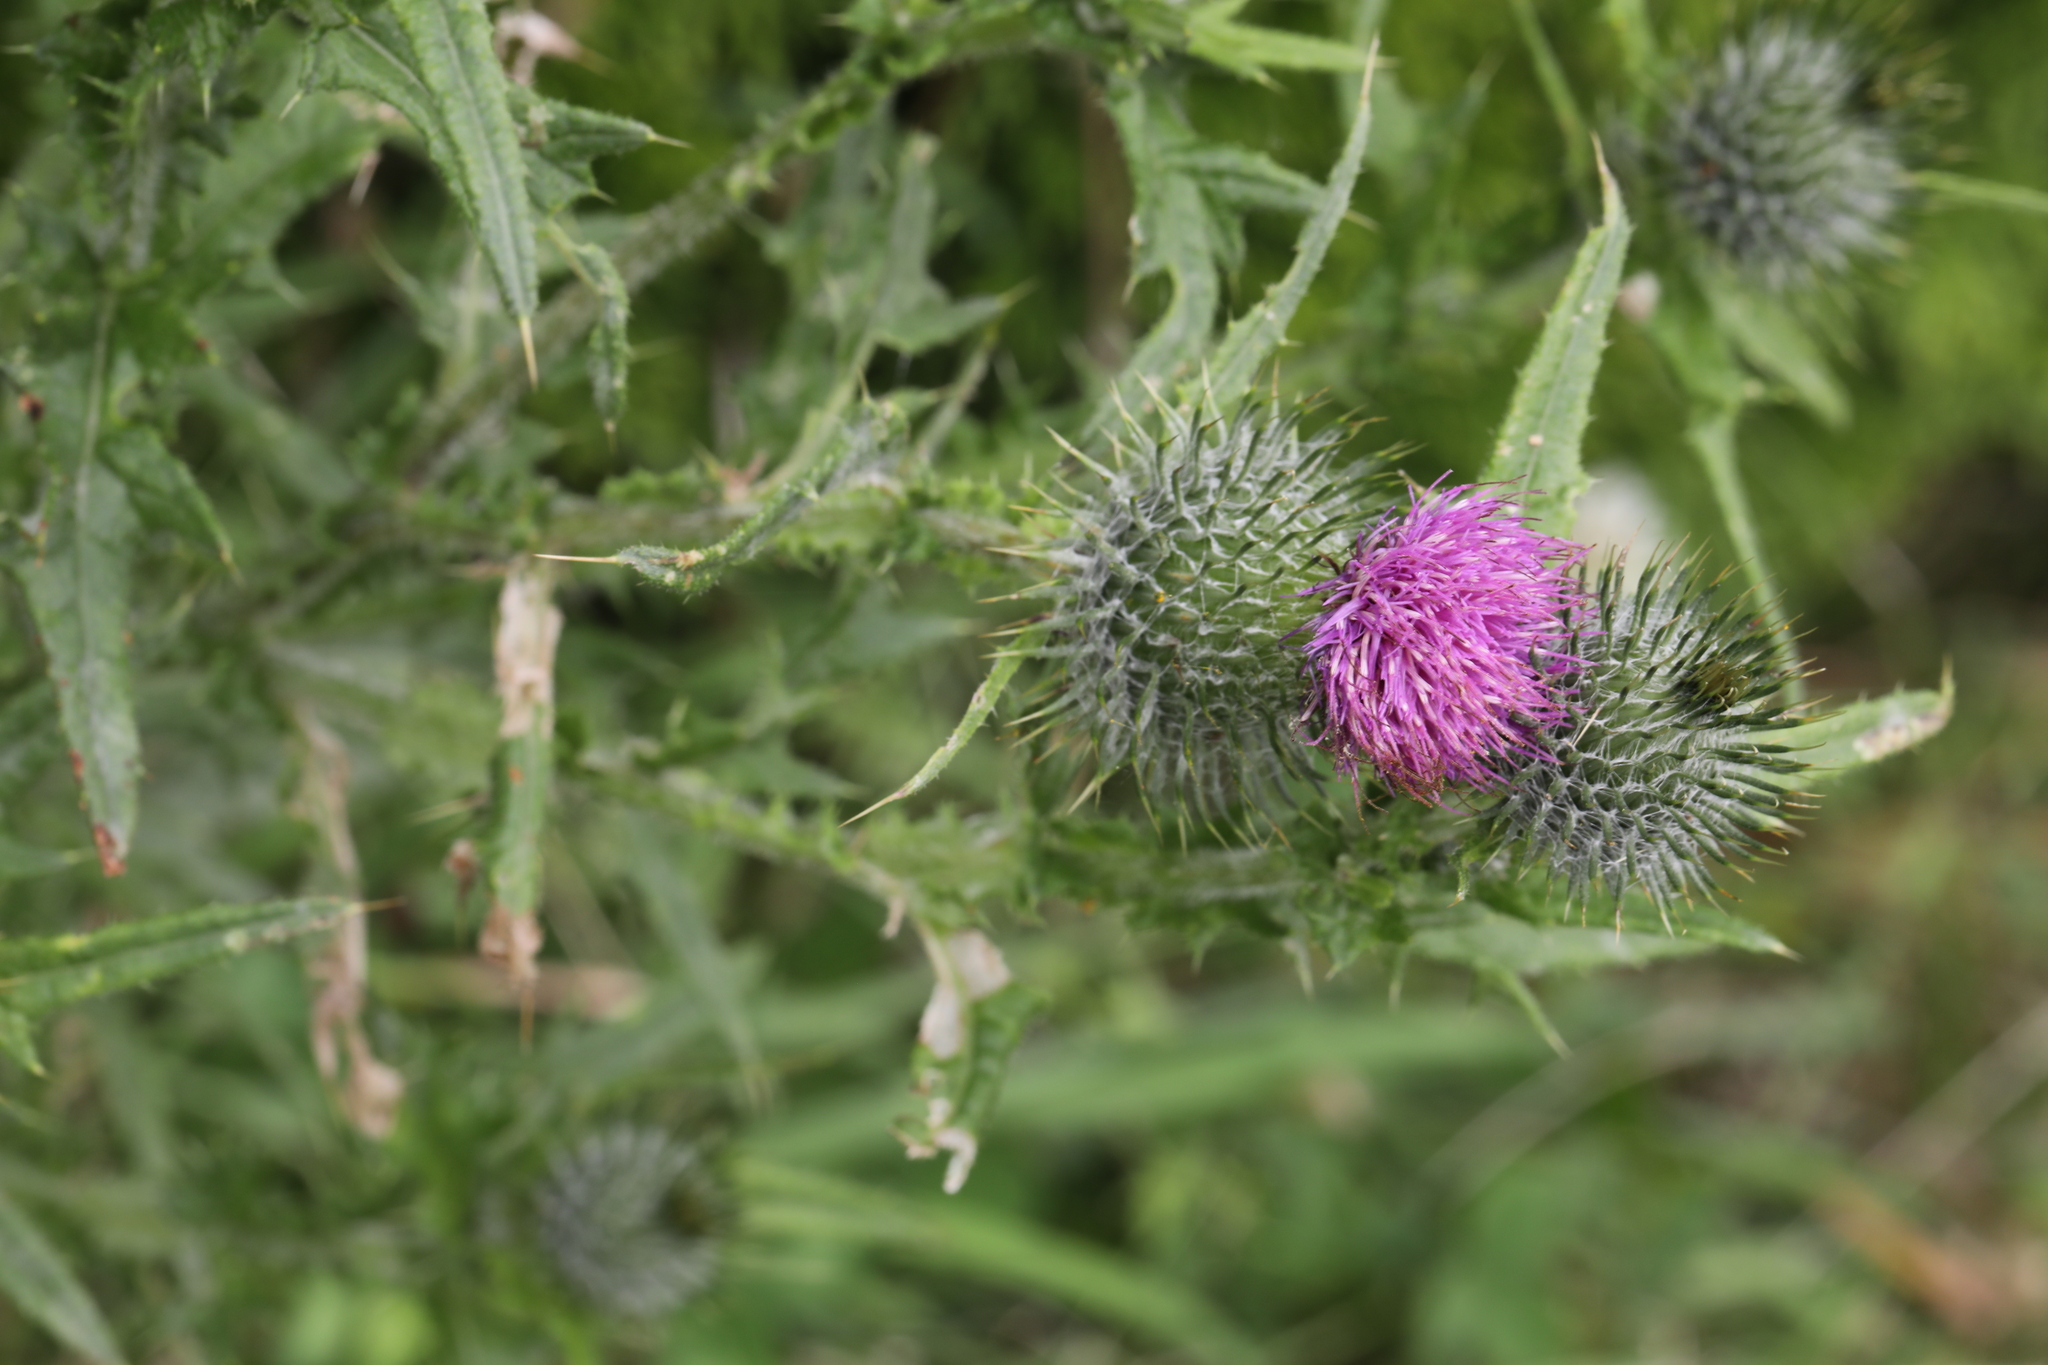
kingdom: Plantae
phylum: Tracheophyta
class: Magnoliopsida
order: Asterales
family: Asteraceae
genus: Cirsium
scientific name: Cirsium vulgare
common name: Bull thistle
